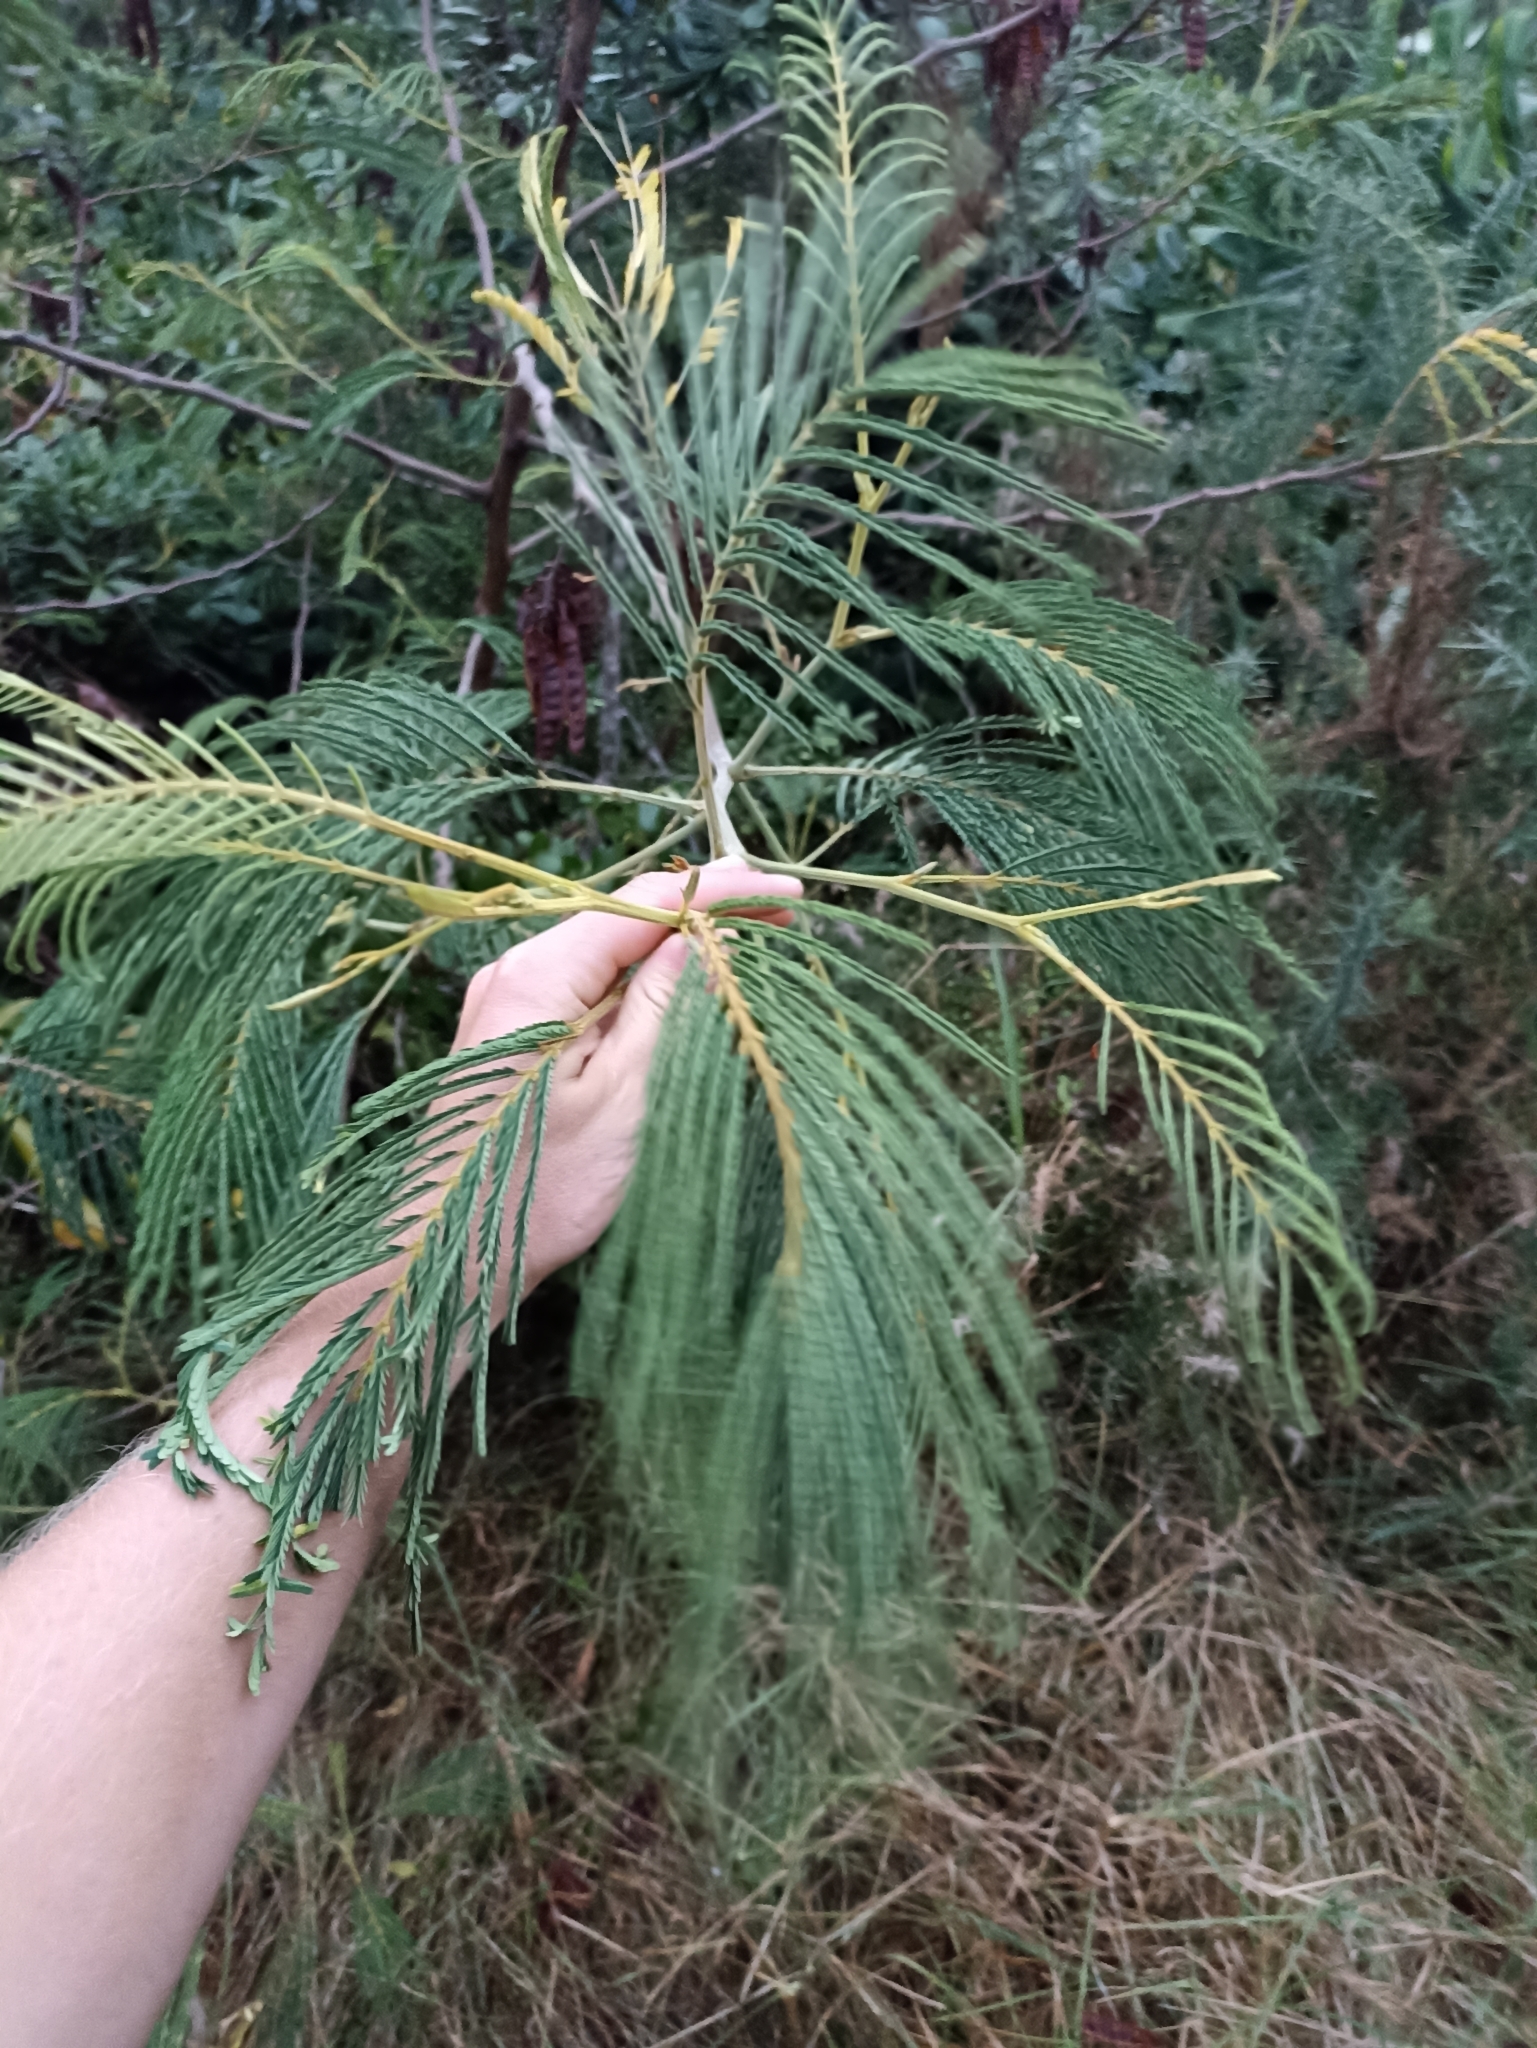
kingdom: Plantae
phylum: Tracheophyta
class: Magnoliopsida
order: Fabales
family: Fabaceae
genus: Paraserianthes
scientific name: Paraserianthes lophantha
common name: Plume albizia
